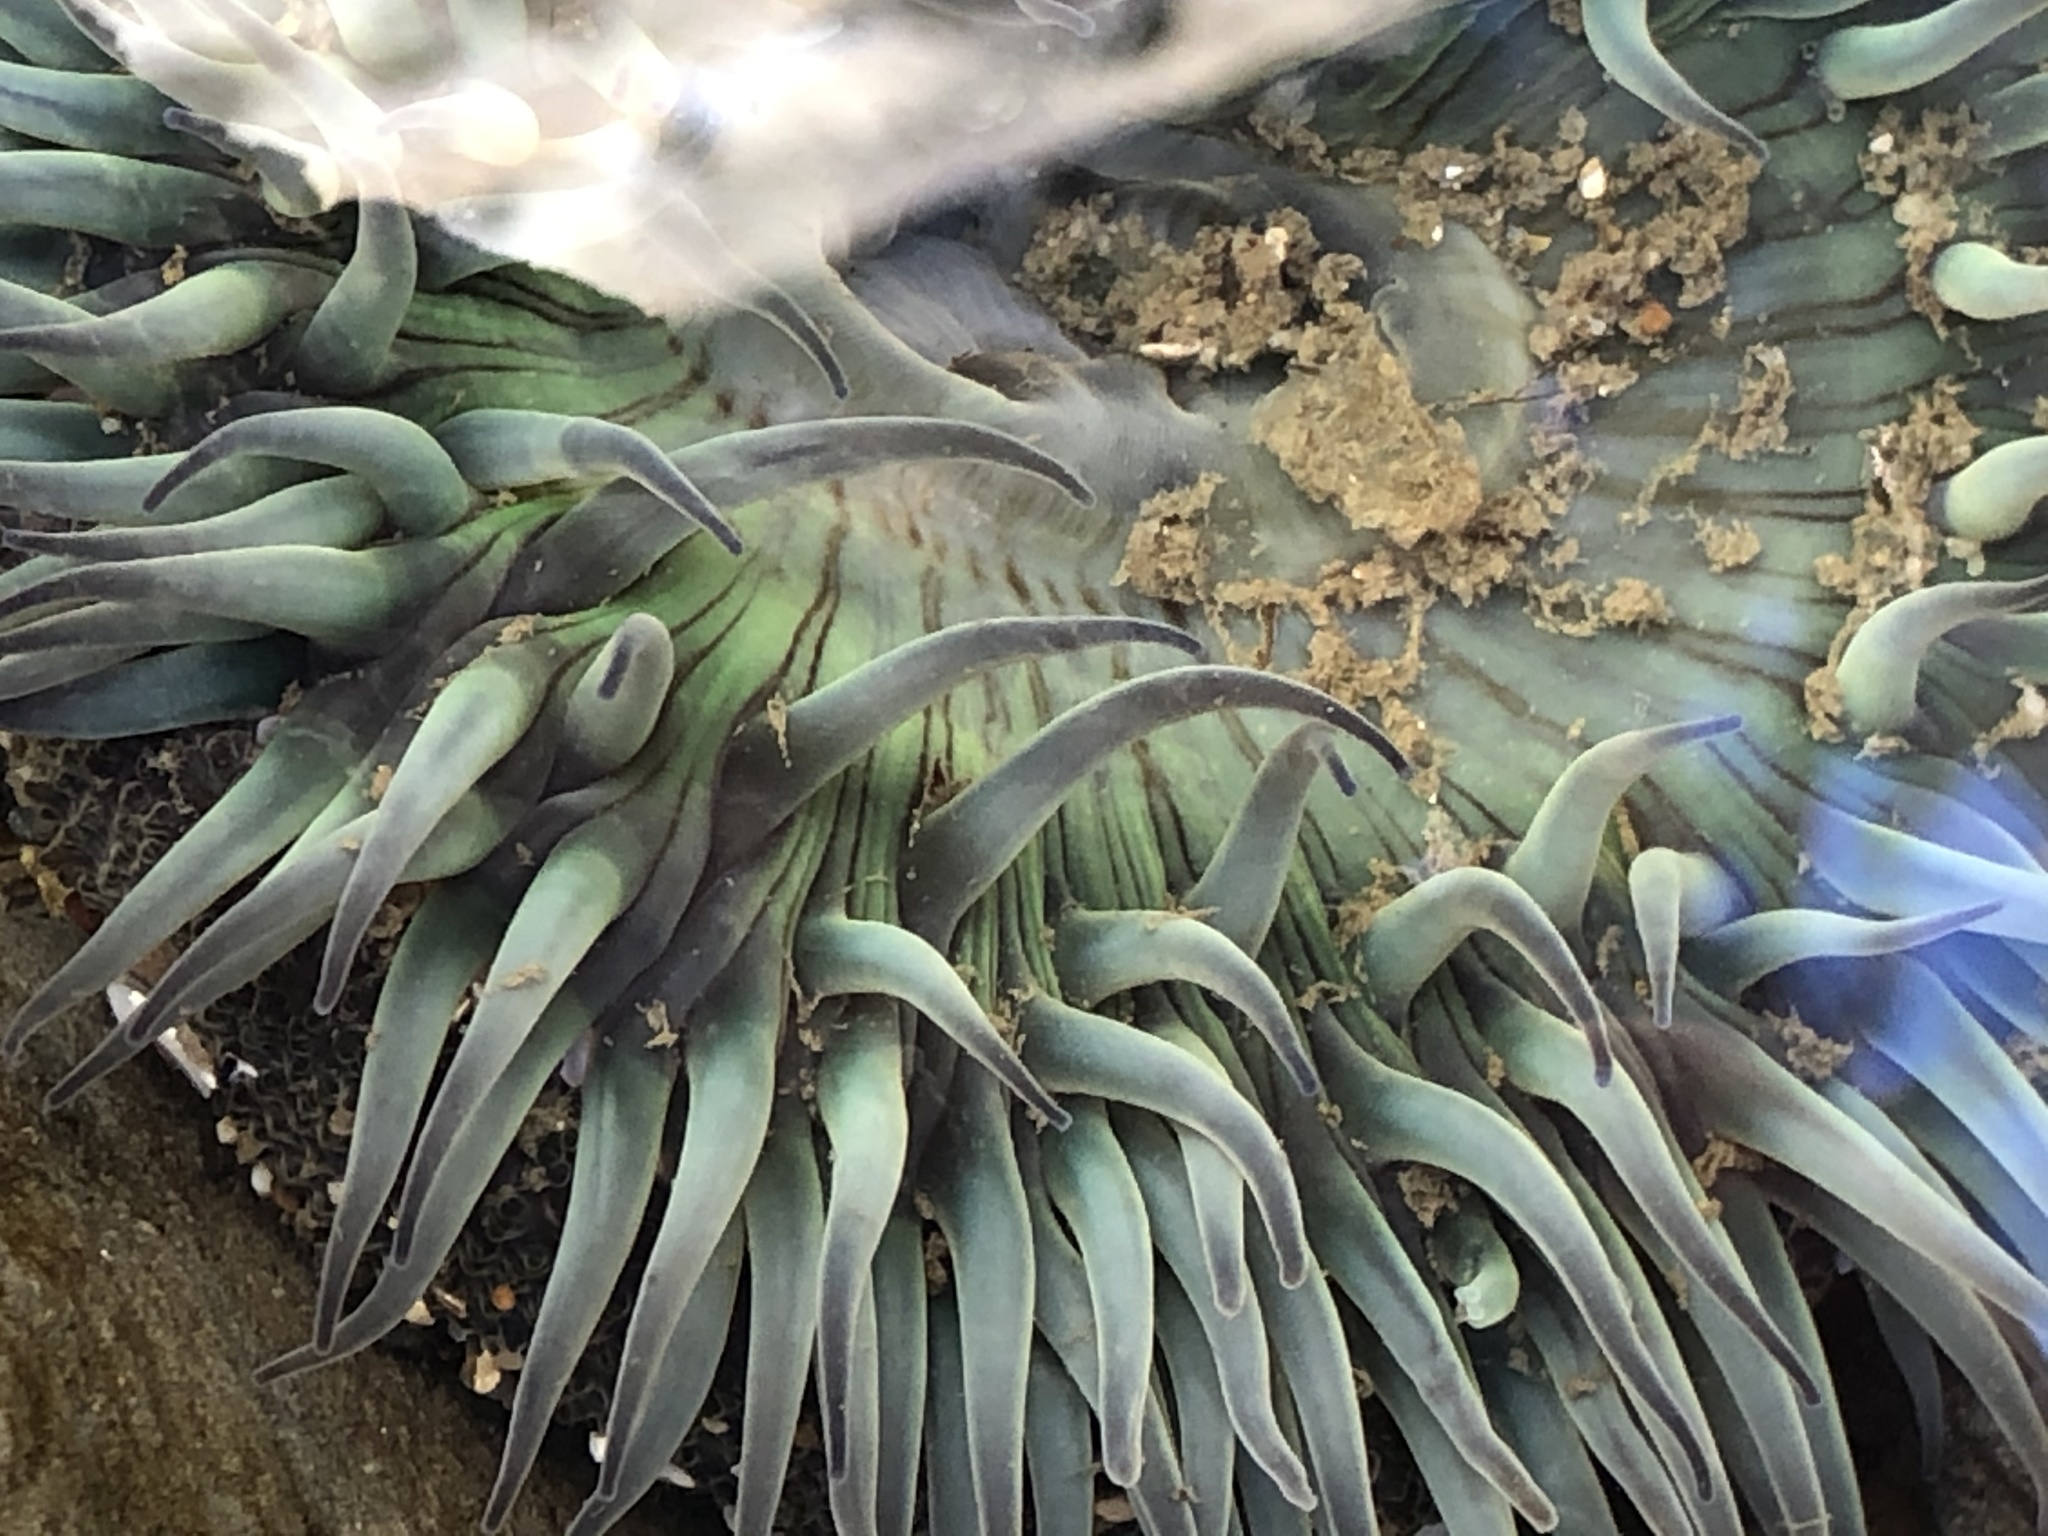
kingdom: Animalia
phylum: Cnidaria
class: Anthozoa
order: Actiniaria
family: Actiniidae
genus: Anthopleura
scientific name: Anthopleura sola
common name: Sun anemone
